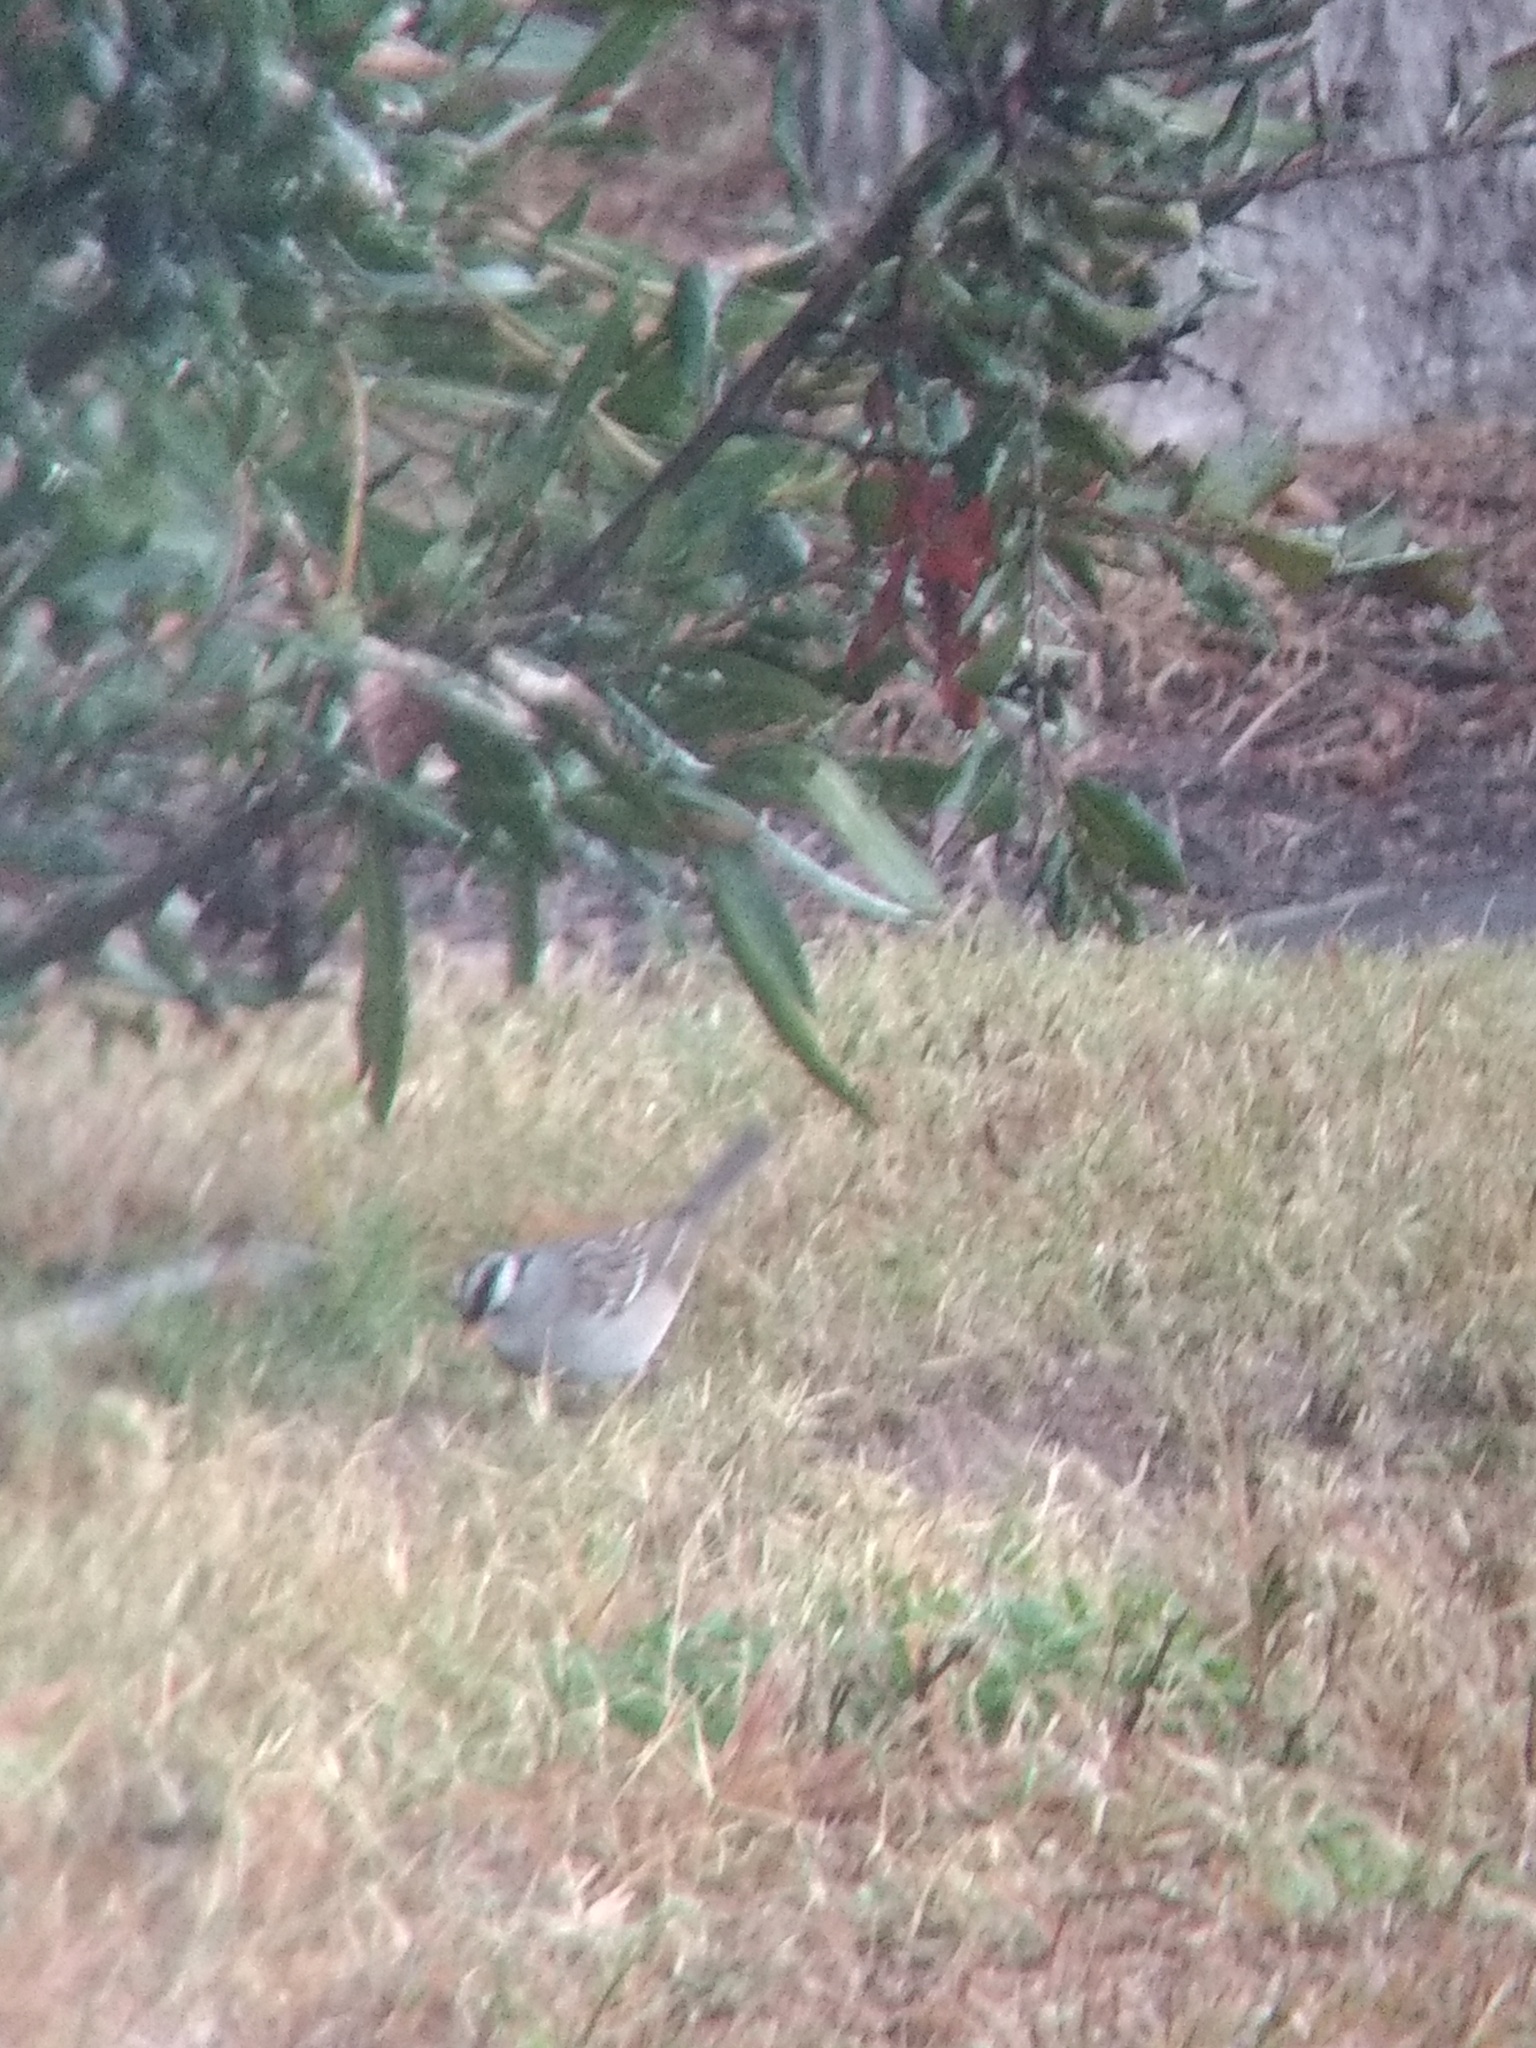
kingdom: Animalia
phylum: Chordata
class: Aves
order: Passeriformes
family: Passerellidae
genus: Zonotrichia
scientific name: Zonotrichia leucophrys
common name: White-crowned sparrow
